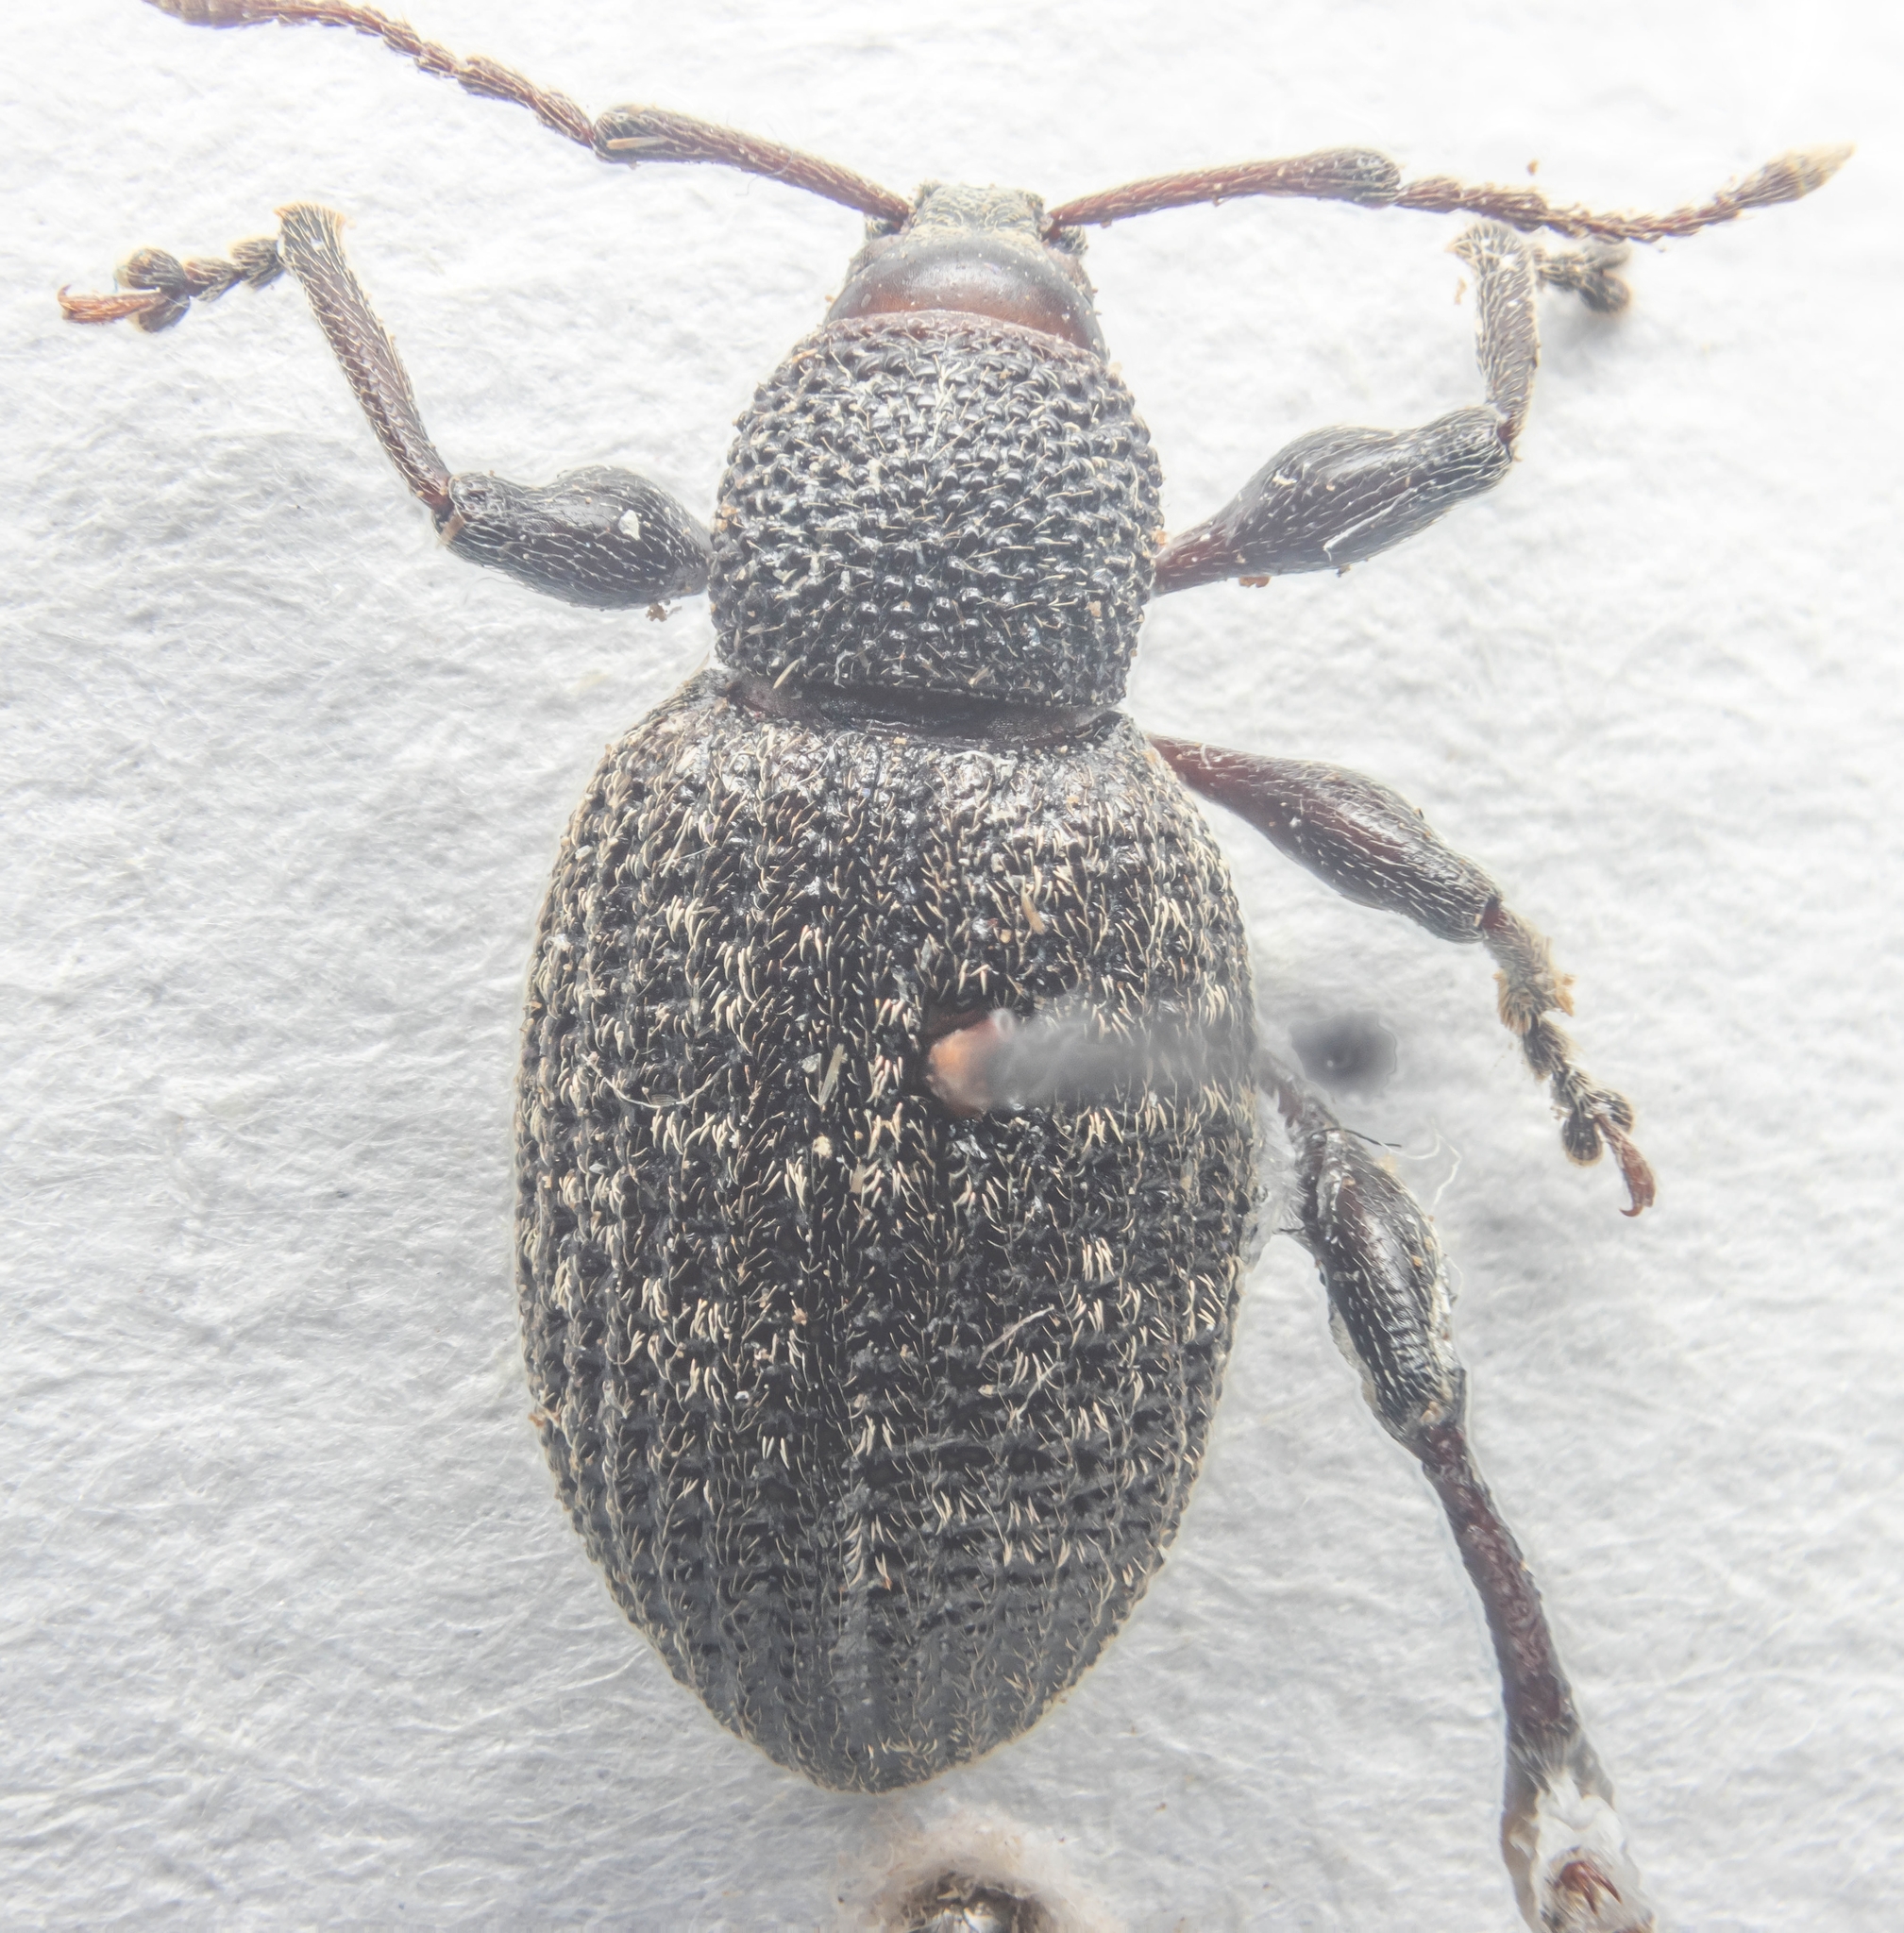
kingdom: Animalia
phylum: Arthropoda
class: Insecta
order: Coleoptera
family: Curculionidae
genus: Otiorhynchus
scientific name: Otiorhynchus sulcatus
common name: Black vine weevil
